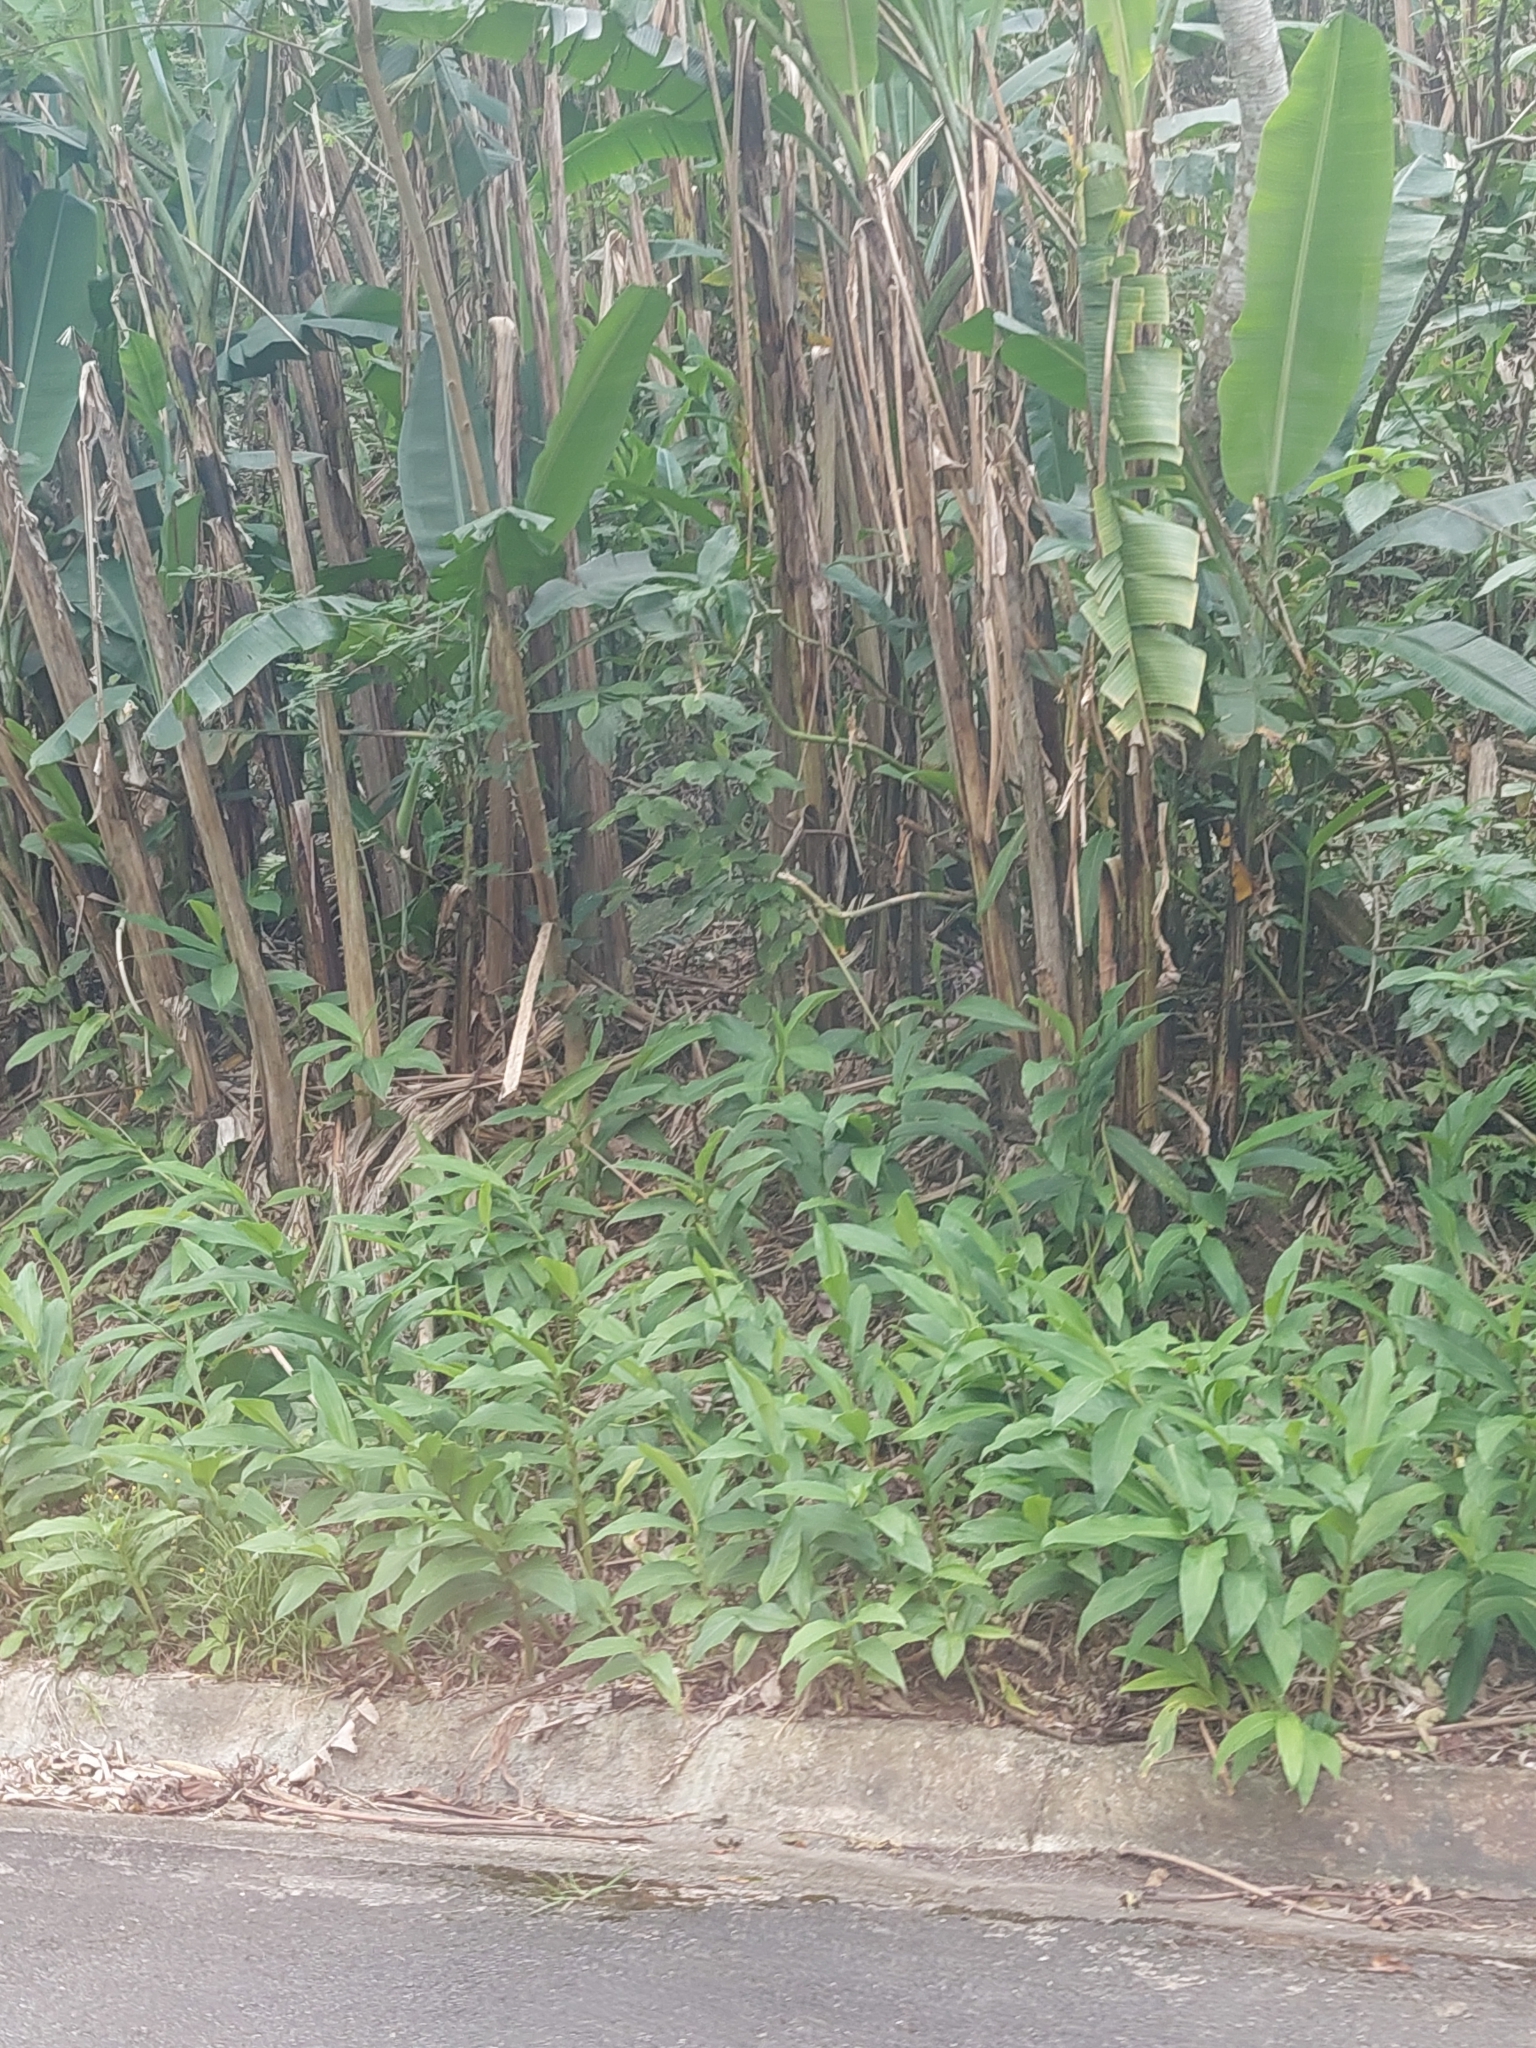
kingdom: Plantae
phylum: Tracheophyta
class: Liliopsida
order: Zingiberales
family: Zingiberaceae
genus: Hedychium
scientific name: Hedychium coronarium
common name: White garland-lily
